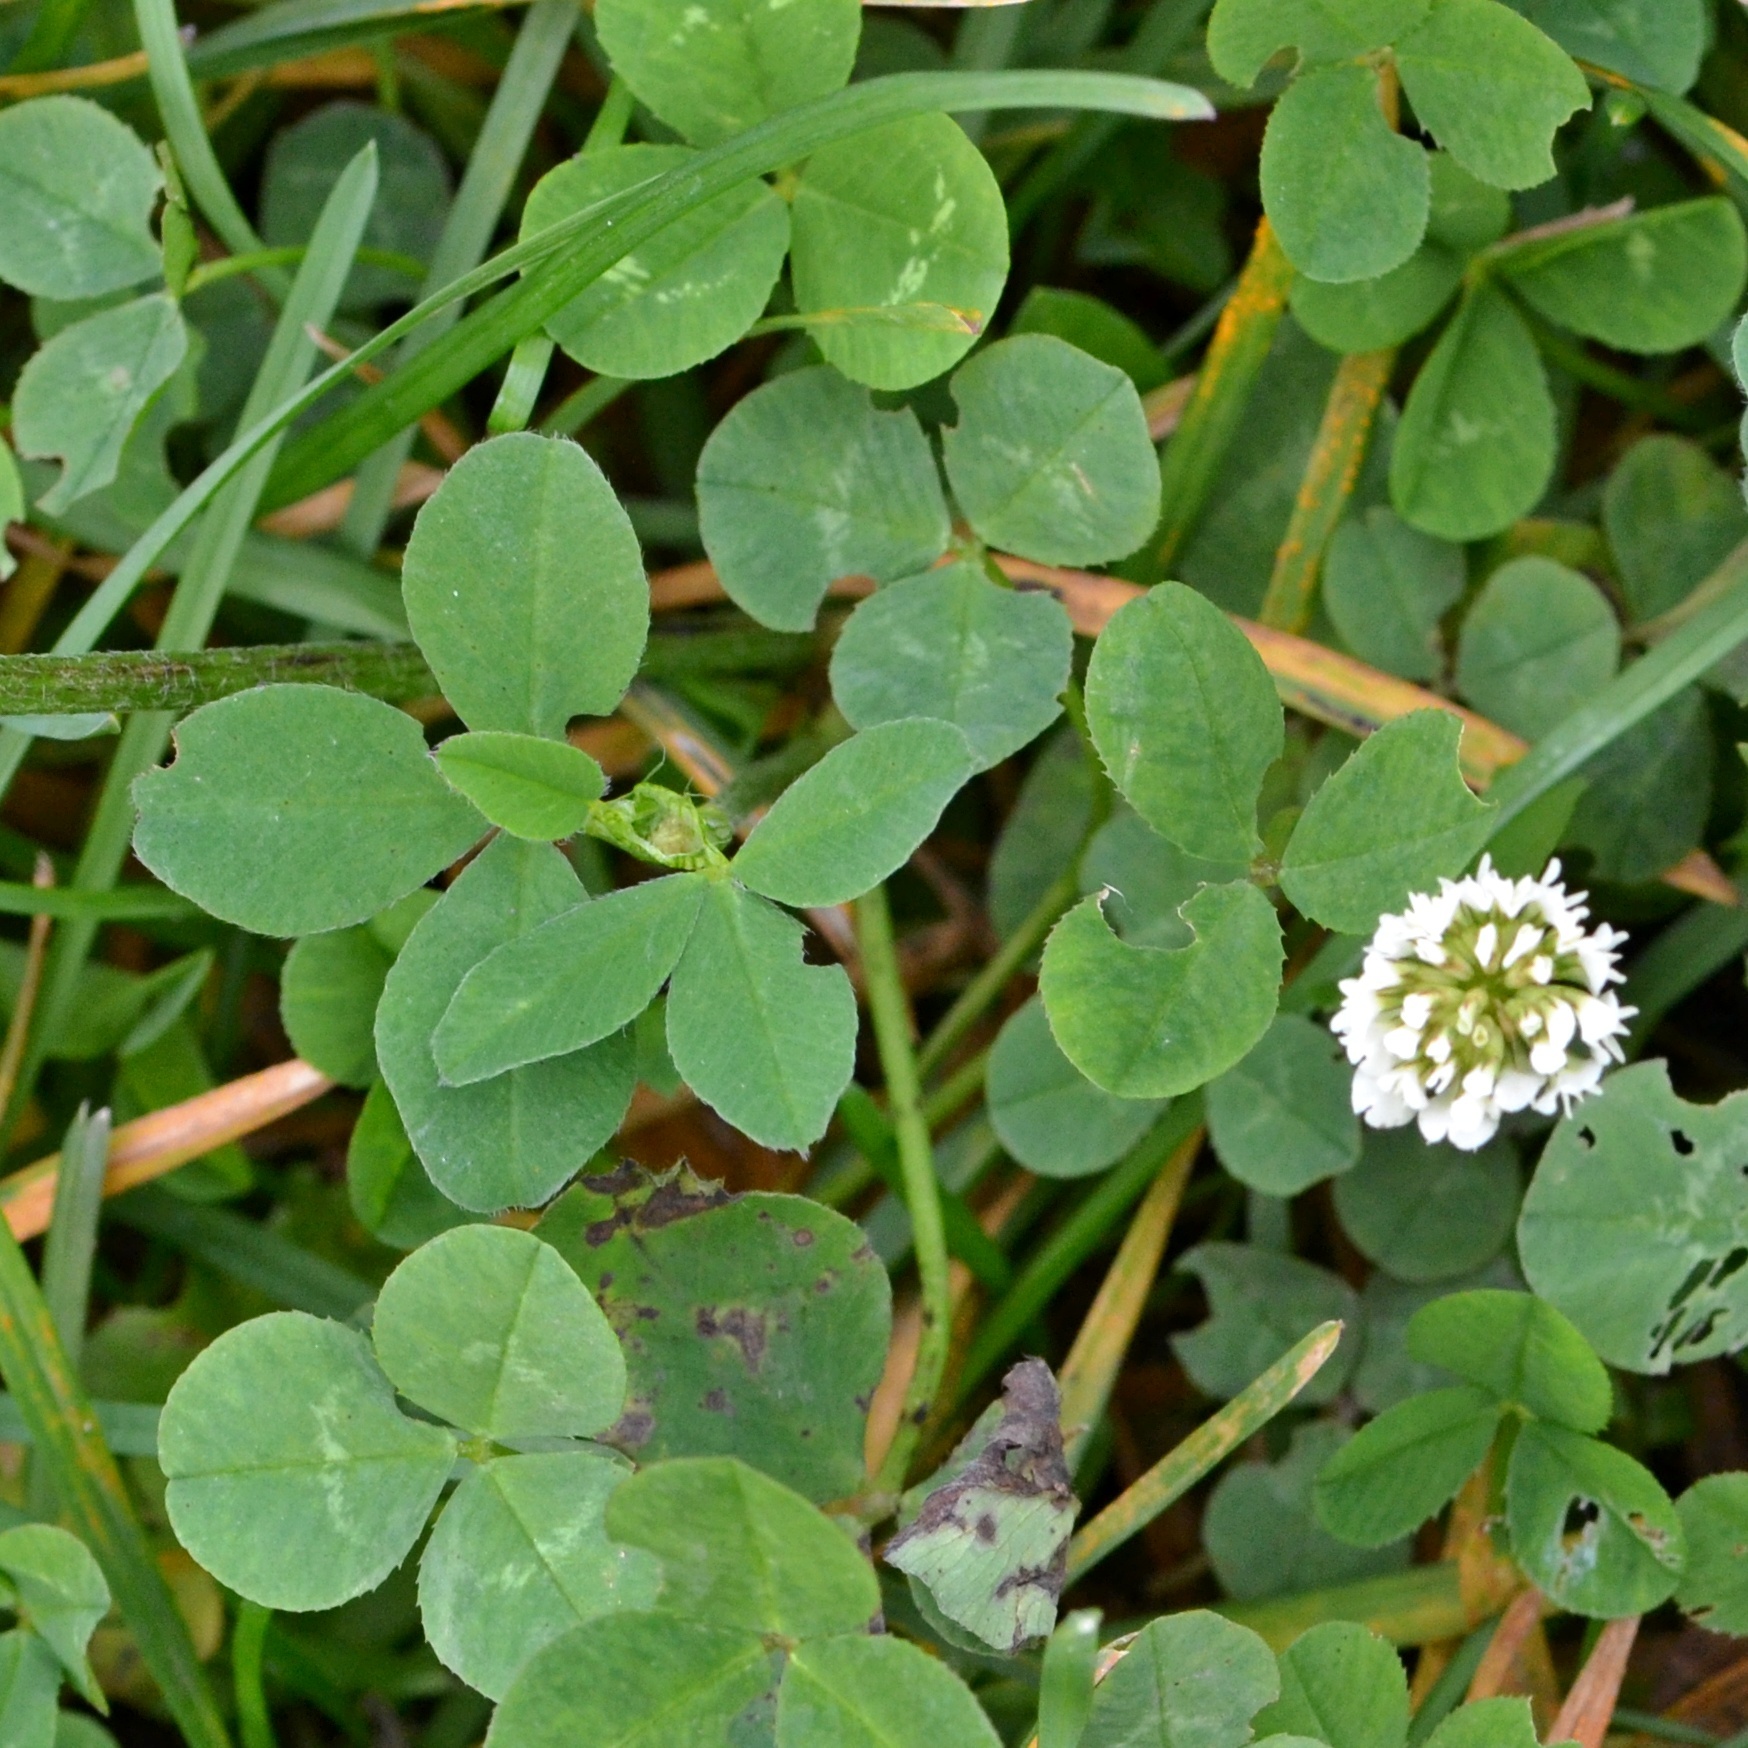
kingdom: Plantae
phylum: Tracheophyta
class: Magnoliopsida
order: Fabales
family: Fabaceae
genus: Trifolium
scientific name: Trifolium repens
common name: White clover
